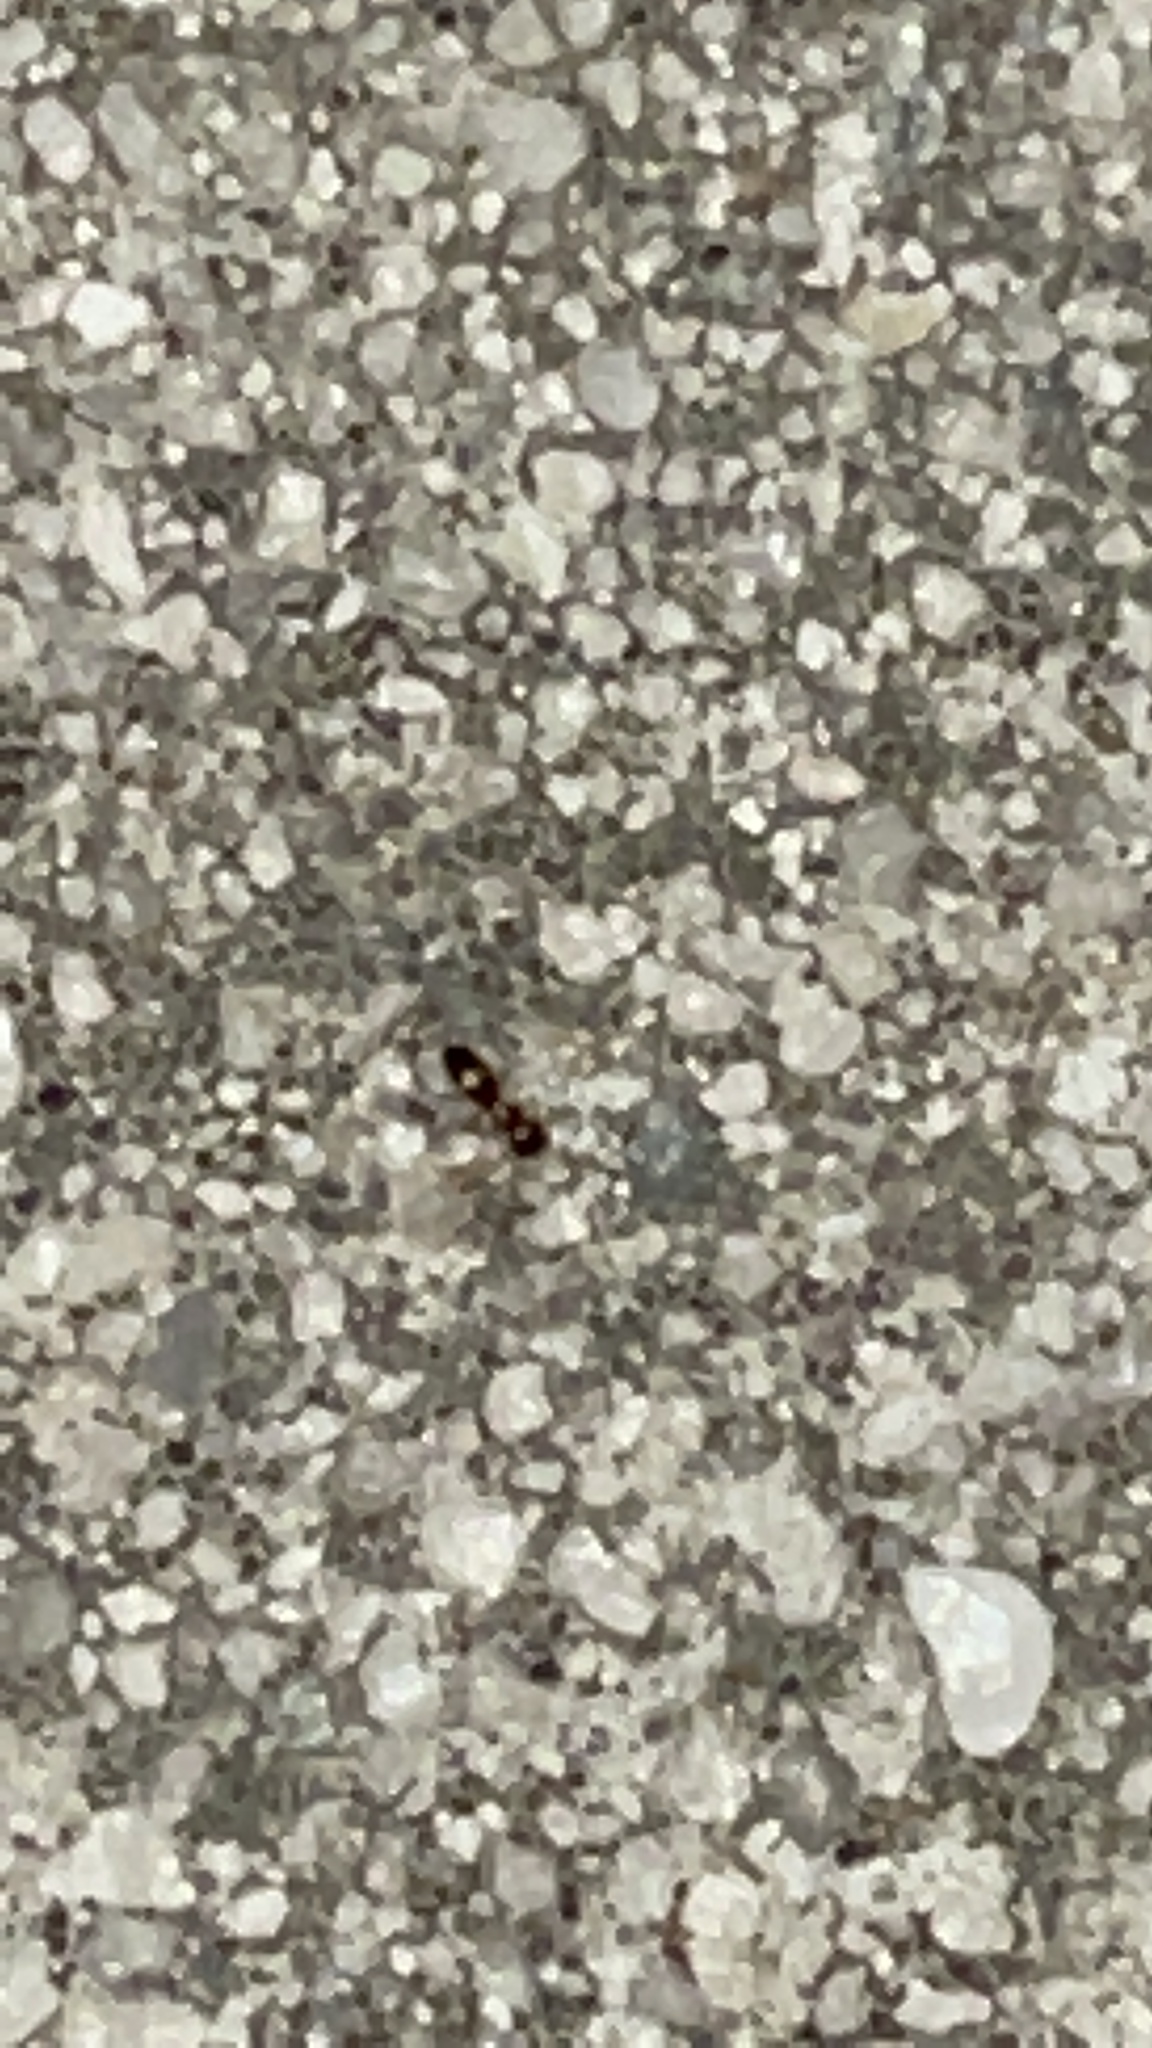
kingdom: Animalia
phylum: Arthropoda
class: Insecta
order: Hymenoptera
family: Formicidae
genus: Brachymyrmex
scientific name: Brachymyrmex patagonicus
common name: Dark rover ant
